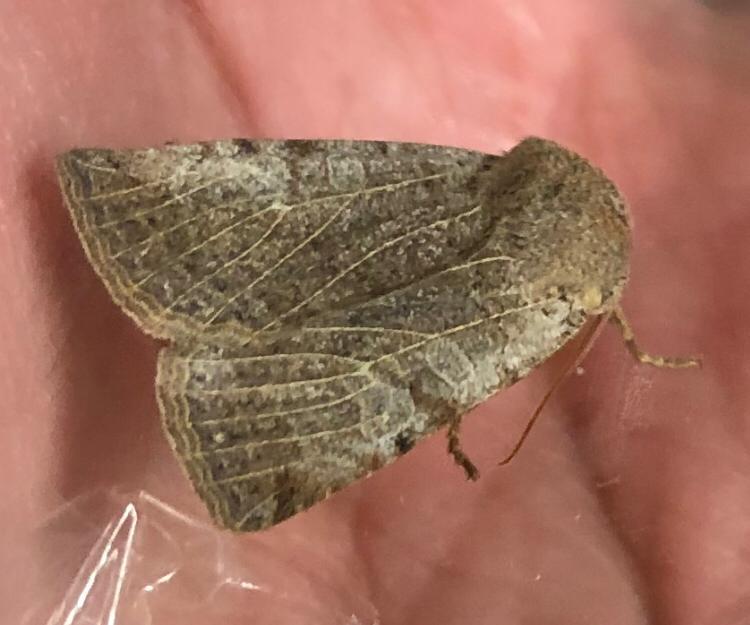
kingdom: Animalia
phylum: Arthropoda
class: Insecta
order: Lepidoptera
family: Noctuidae
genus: Conistra
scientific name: Conistra rubiginosa
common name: Black-spotted chestnut
